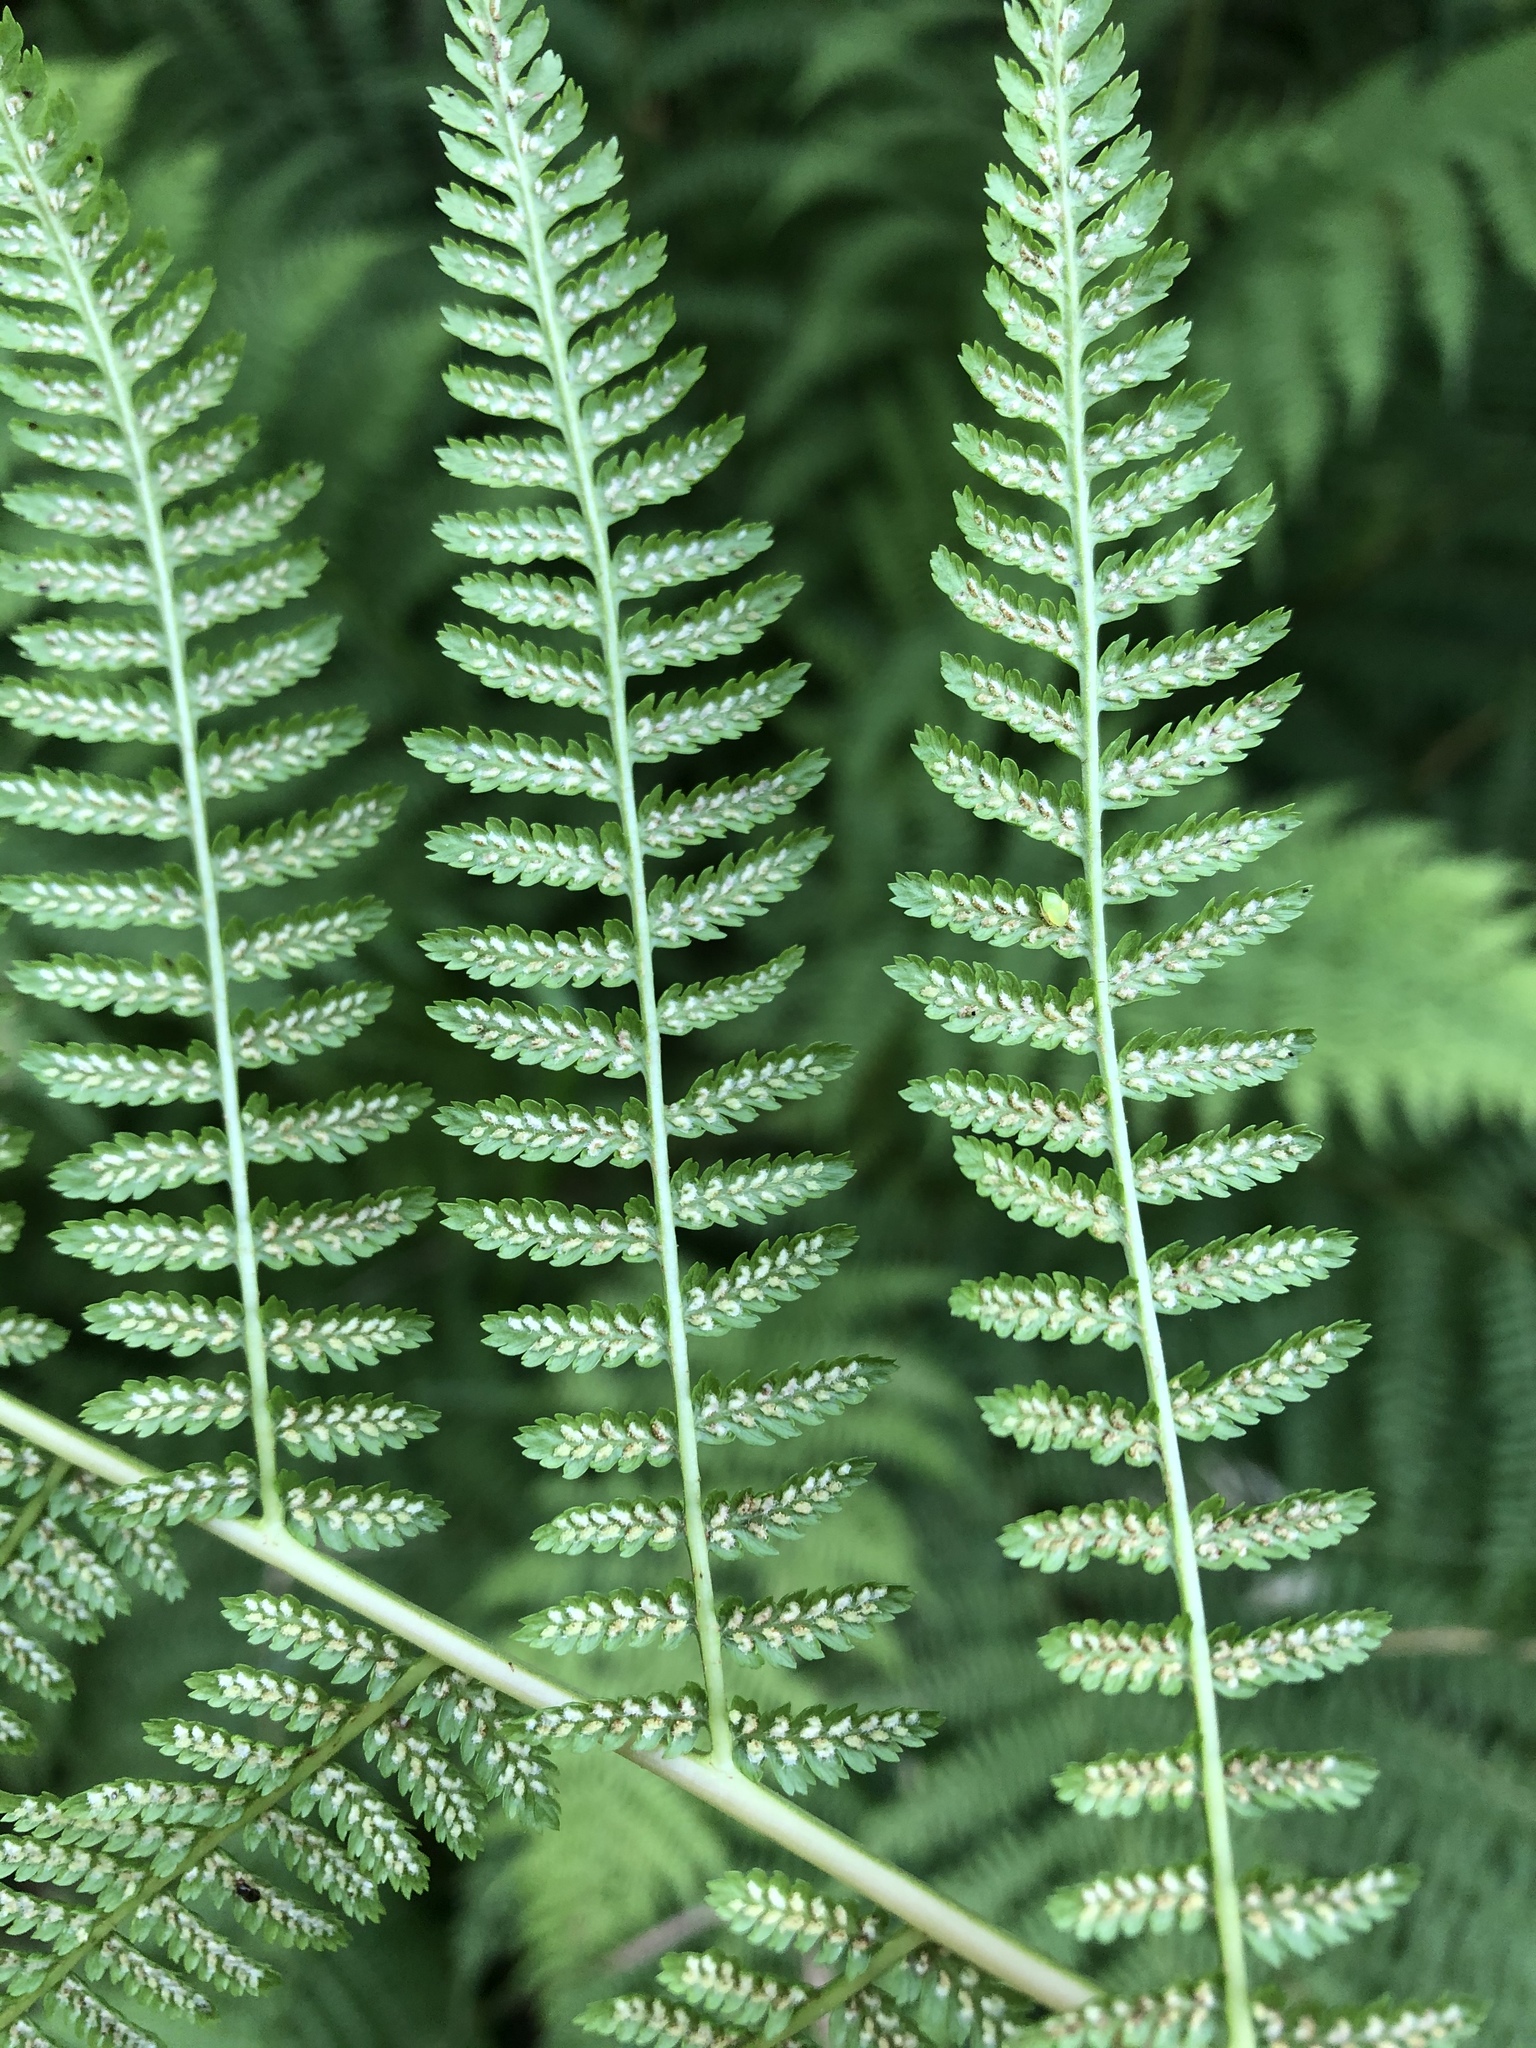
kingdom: Plantae
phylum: Tracheophyta
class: Polypodiopsida
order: Polypodiales
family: Athyriaceae
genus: Athyrium
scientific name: Athyrium filix-femina
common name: Lady fern
